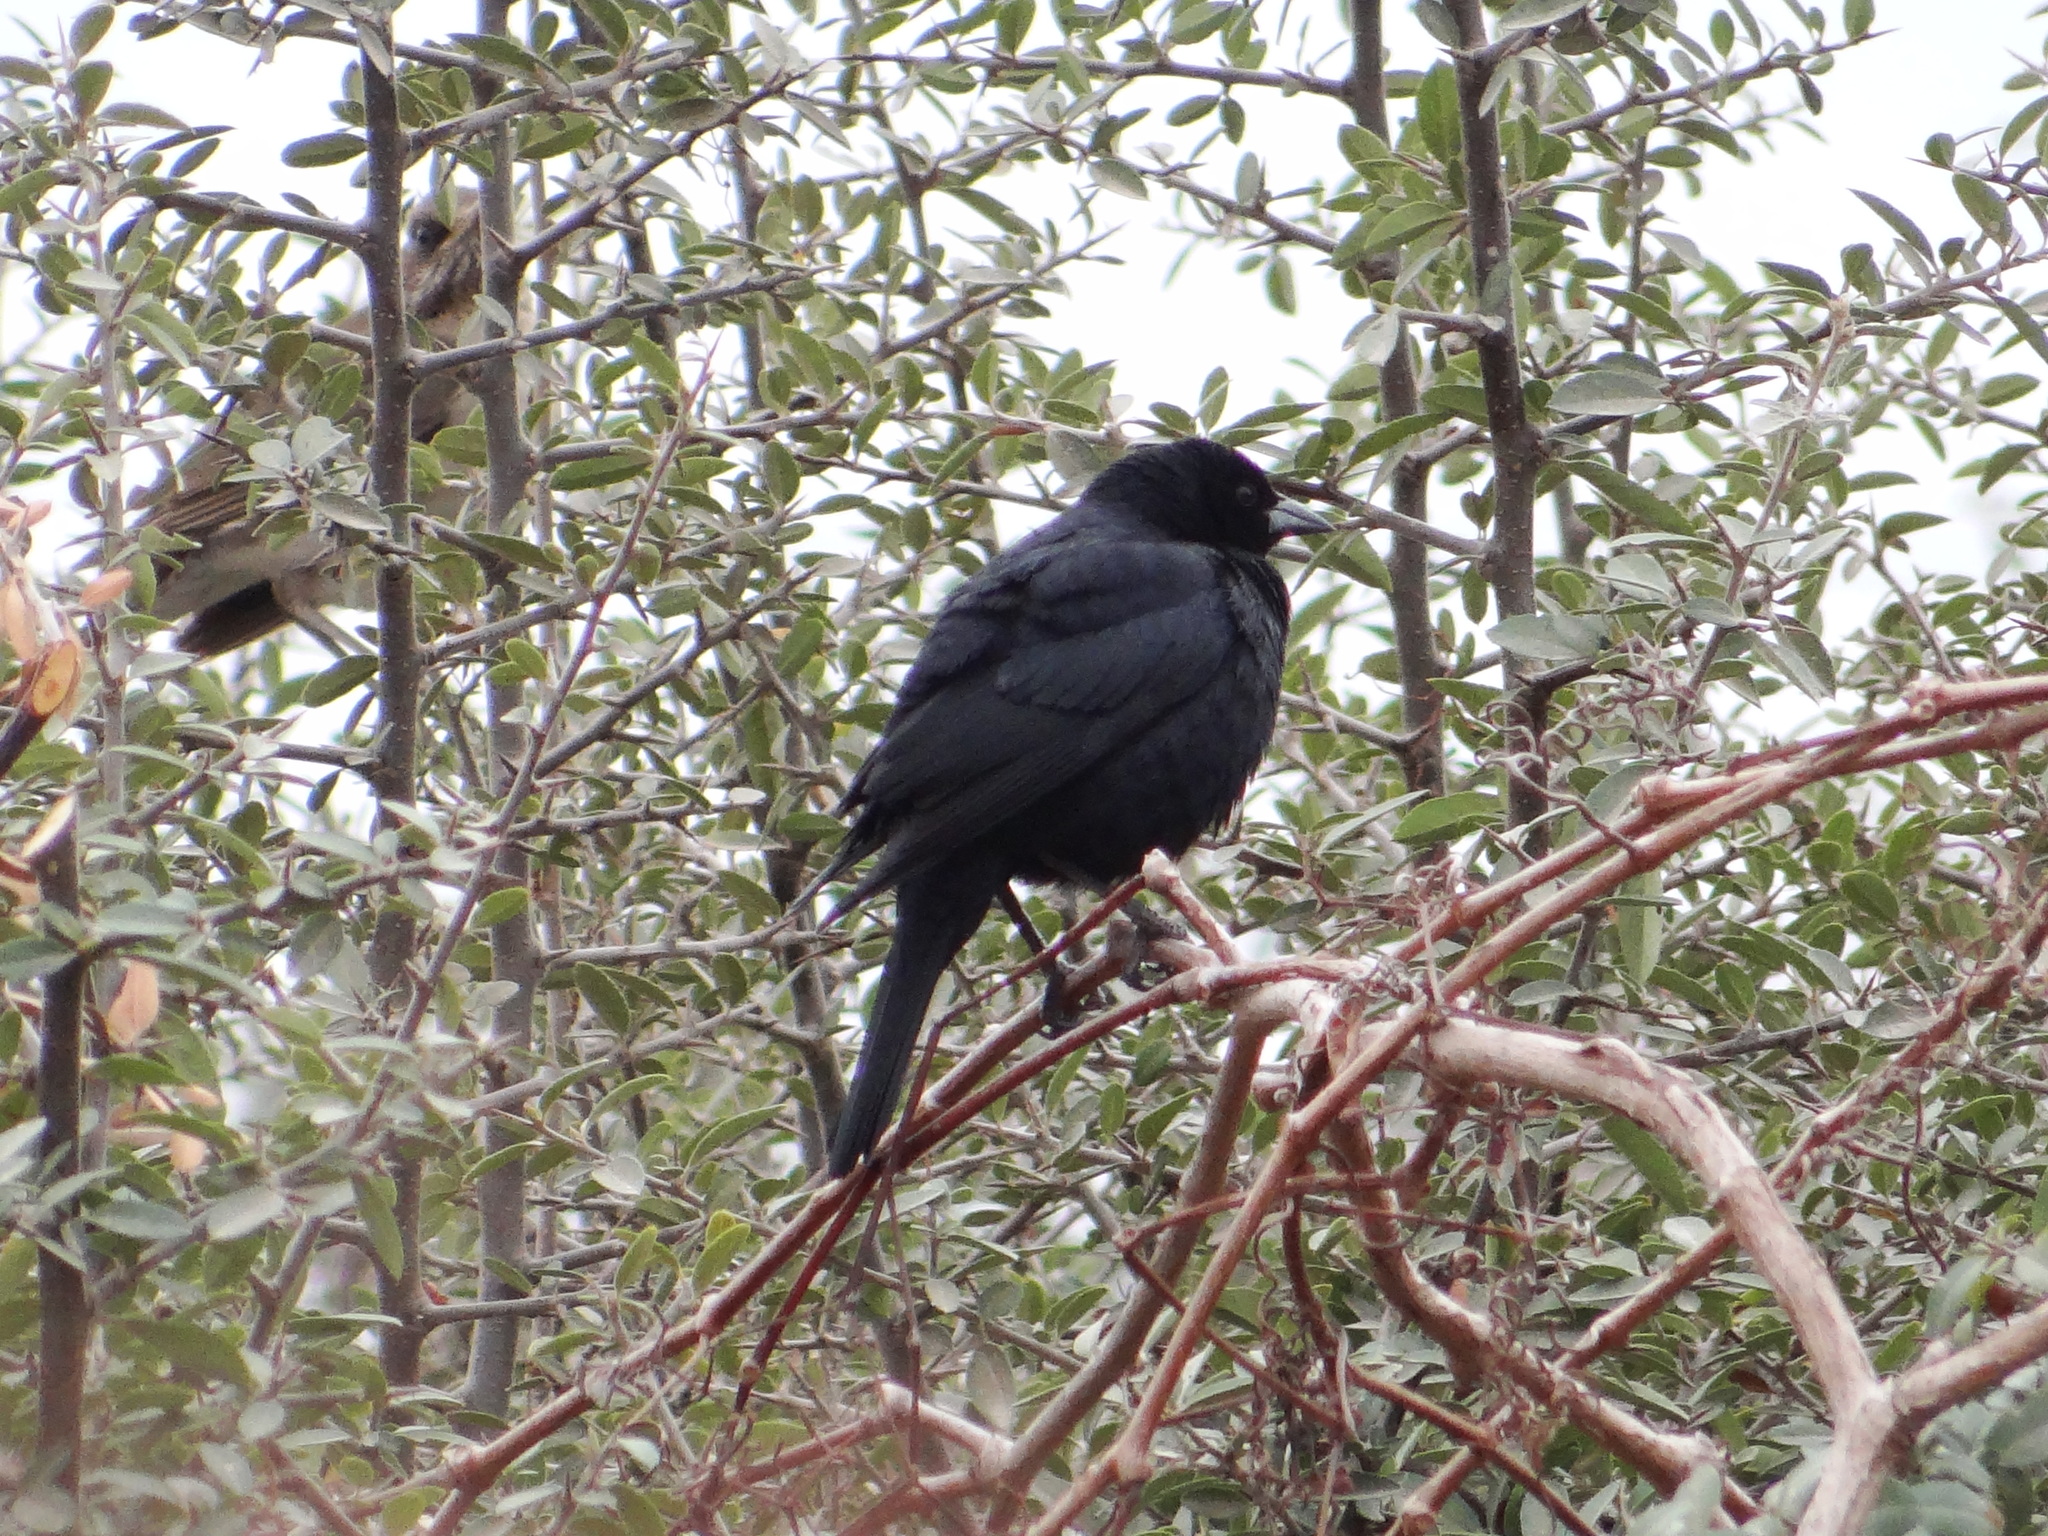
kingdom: Animalia
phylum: Chordata
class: Aves
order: Passeriformes
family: Icteridae
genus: Molothrus
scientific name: Molothrus bonariensis
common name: Shiny cowbird
